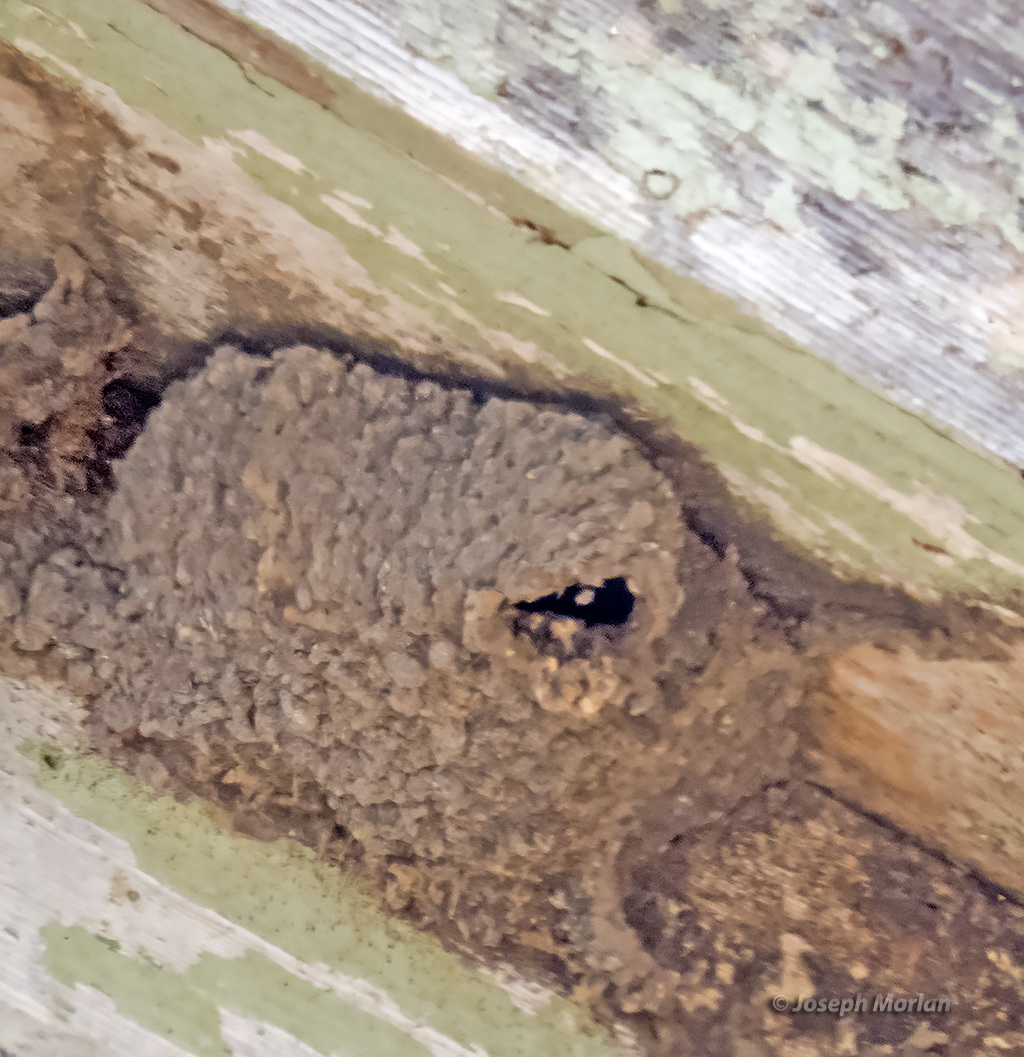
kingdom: Animalia
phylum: Chordata
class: Aves
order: Passeriformes
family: Hirundinidae
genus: Petrochelidon
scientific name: Petrochelidon pyrrhonota
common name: American cliff swallow
